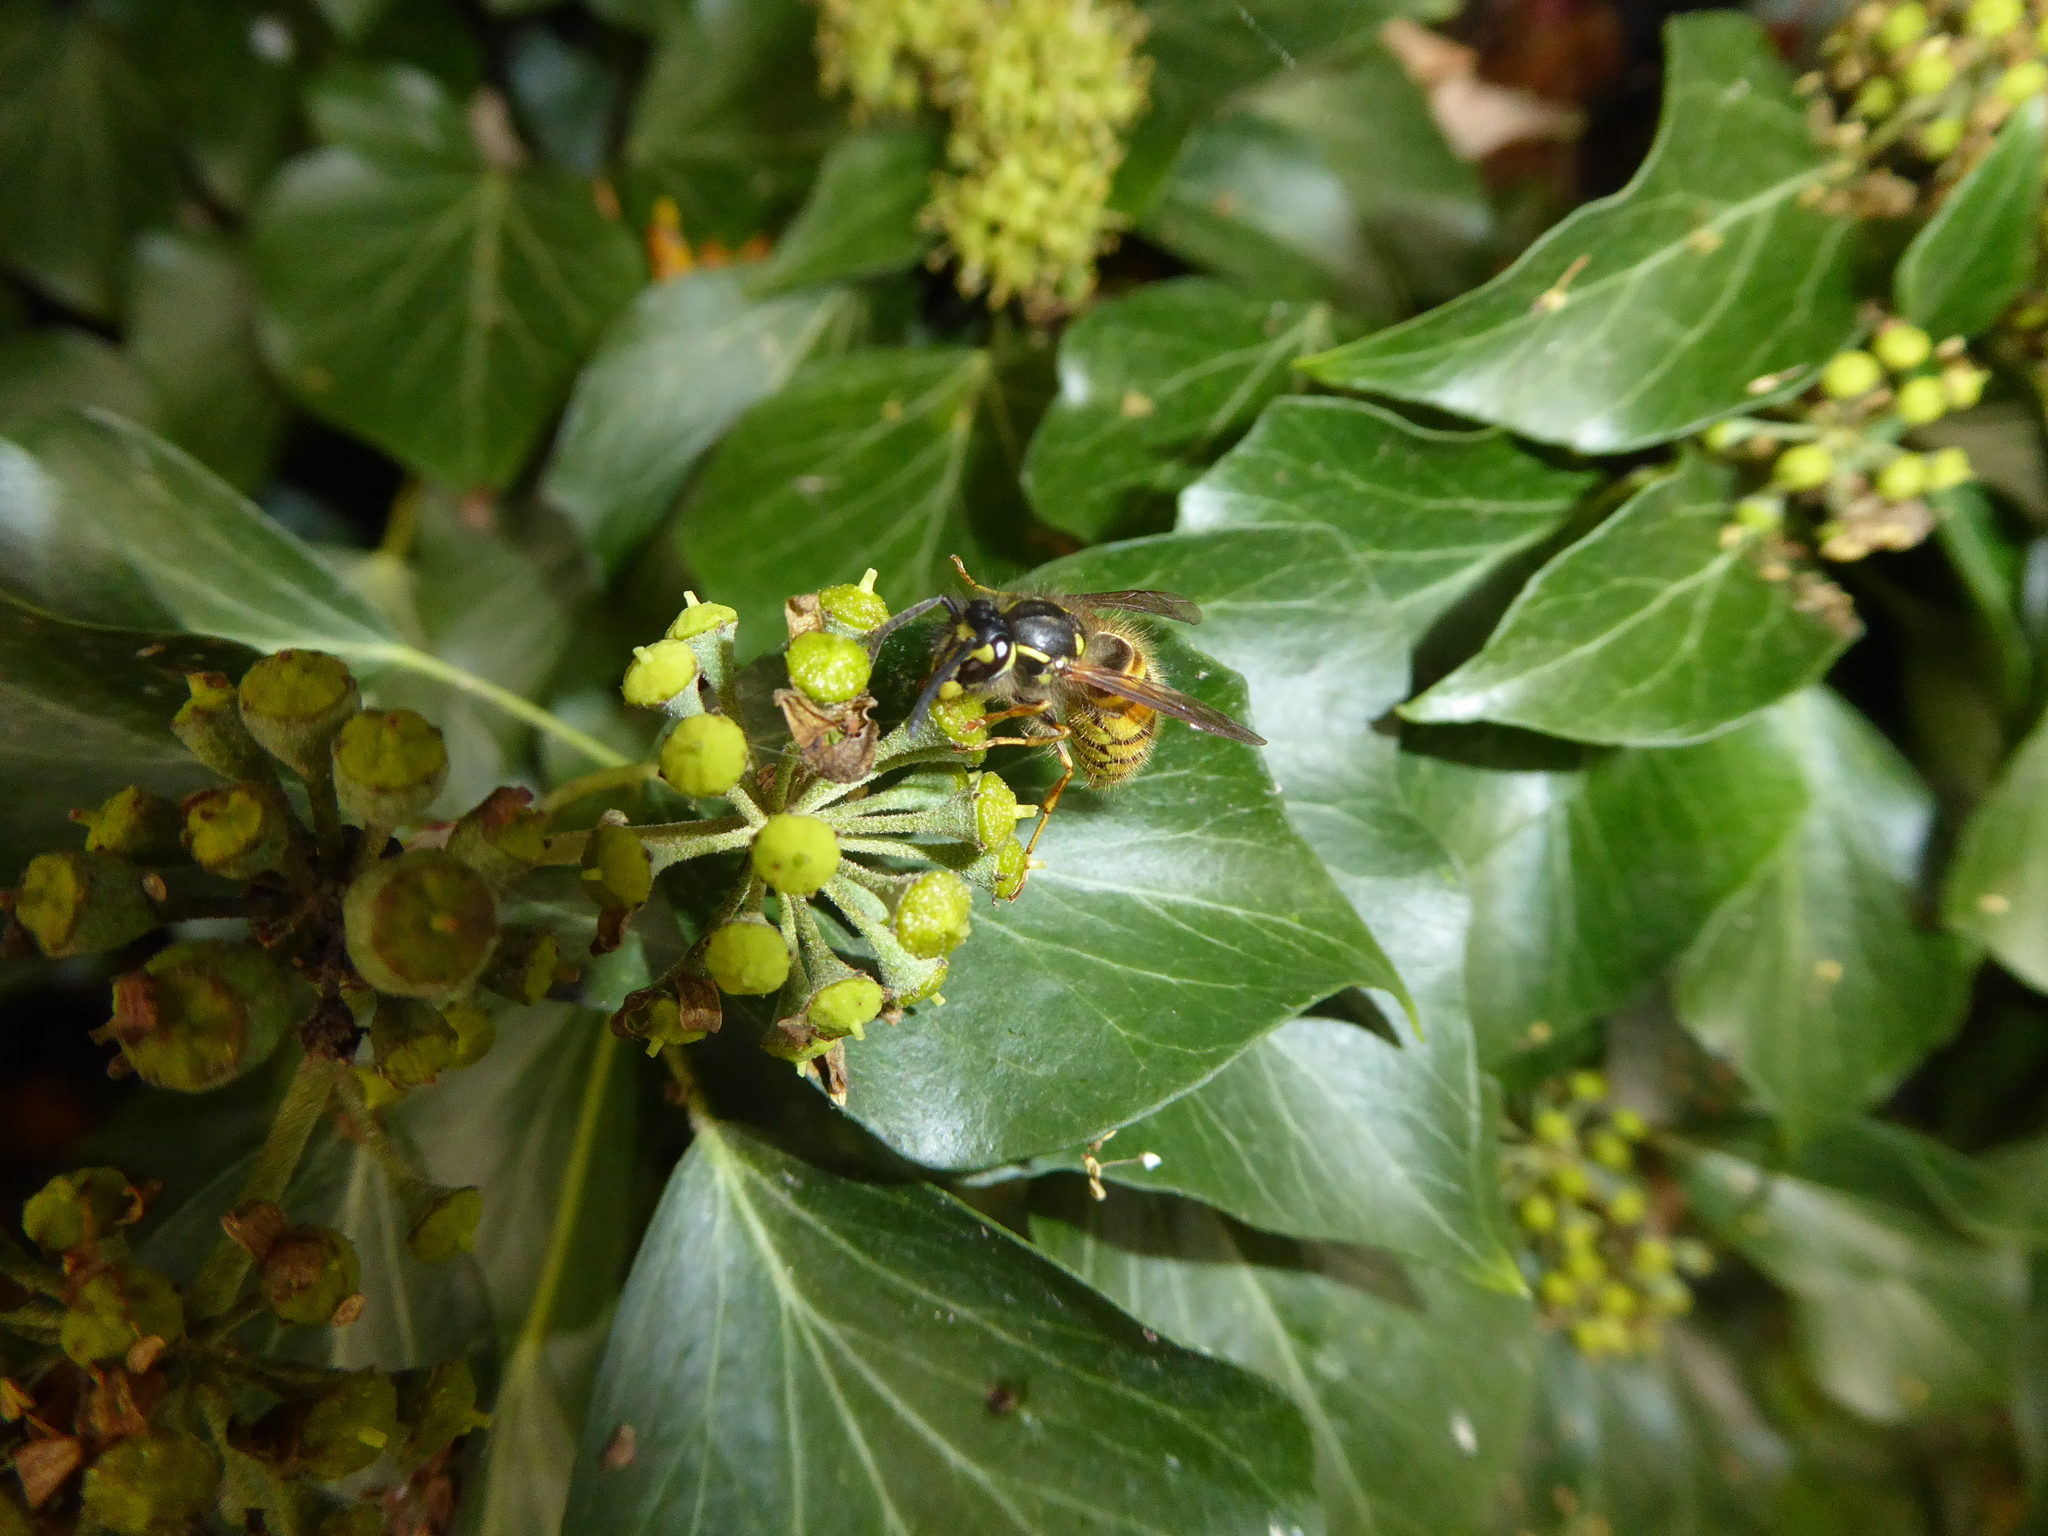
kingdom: Animalia
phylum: Arthropoda
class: Insecta
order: Hymenoptera
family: Vespidae
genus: Vespula
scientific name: Vespula vulgaris
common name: Common wasp
